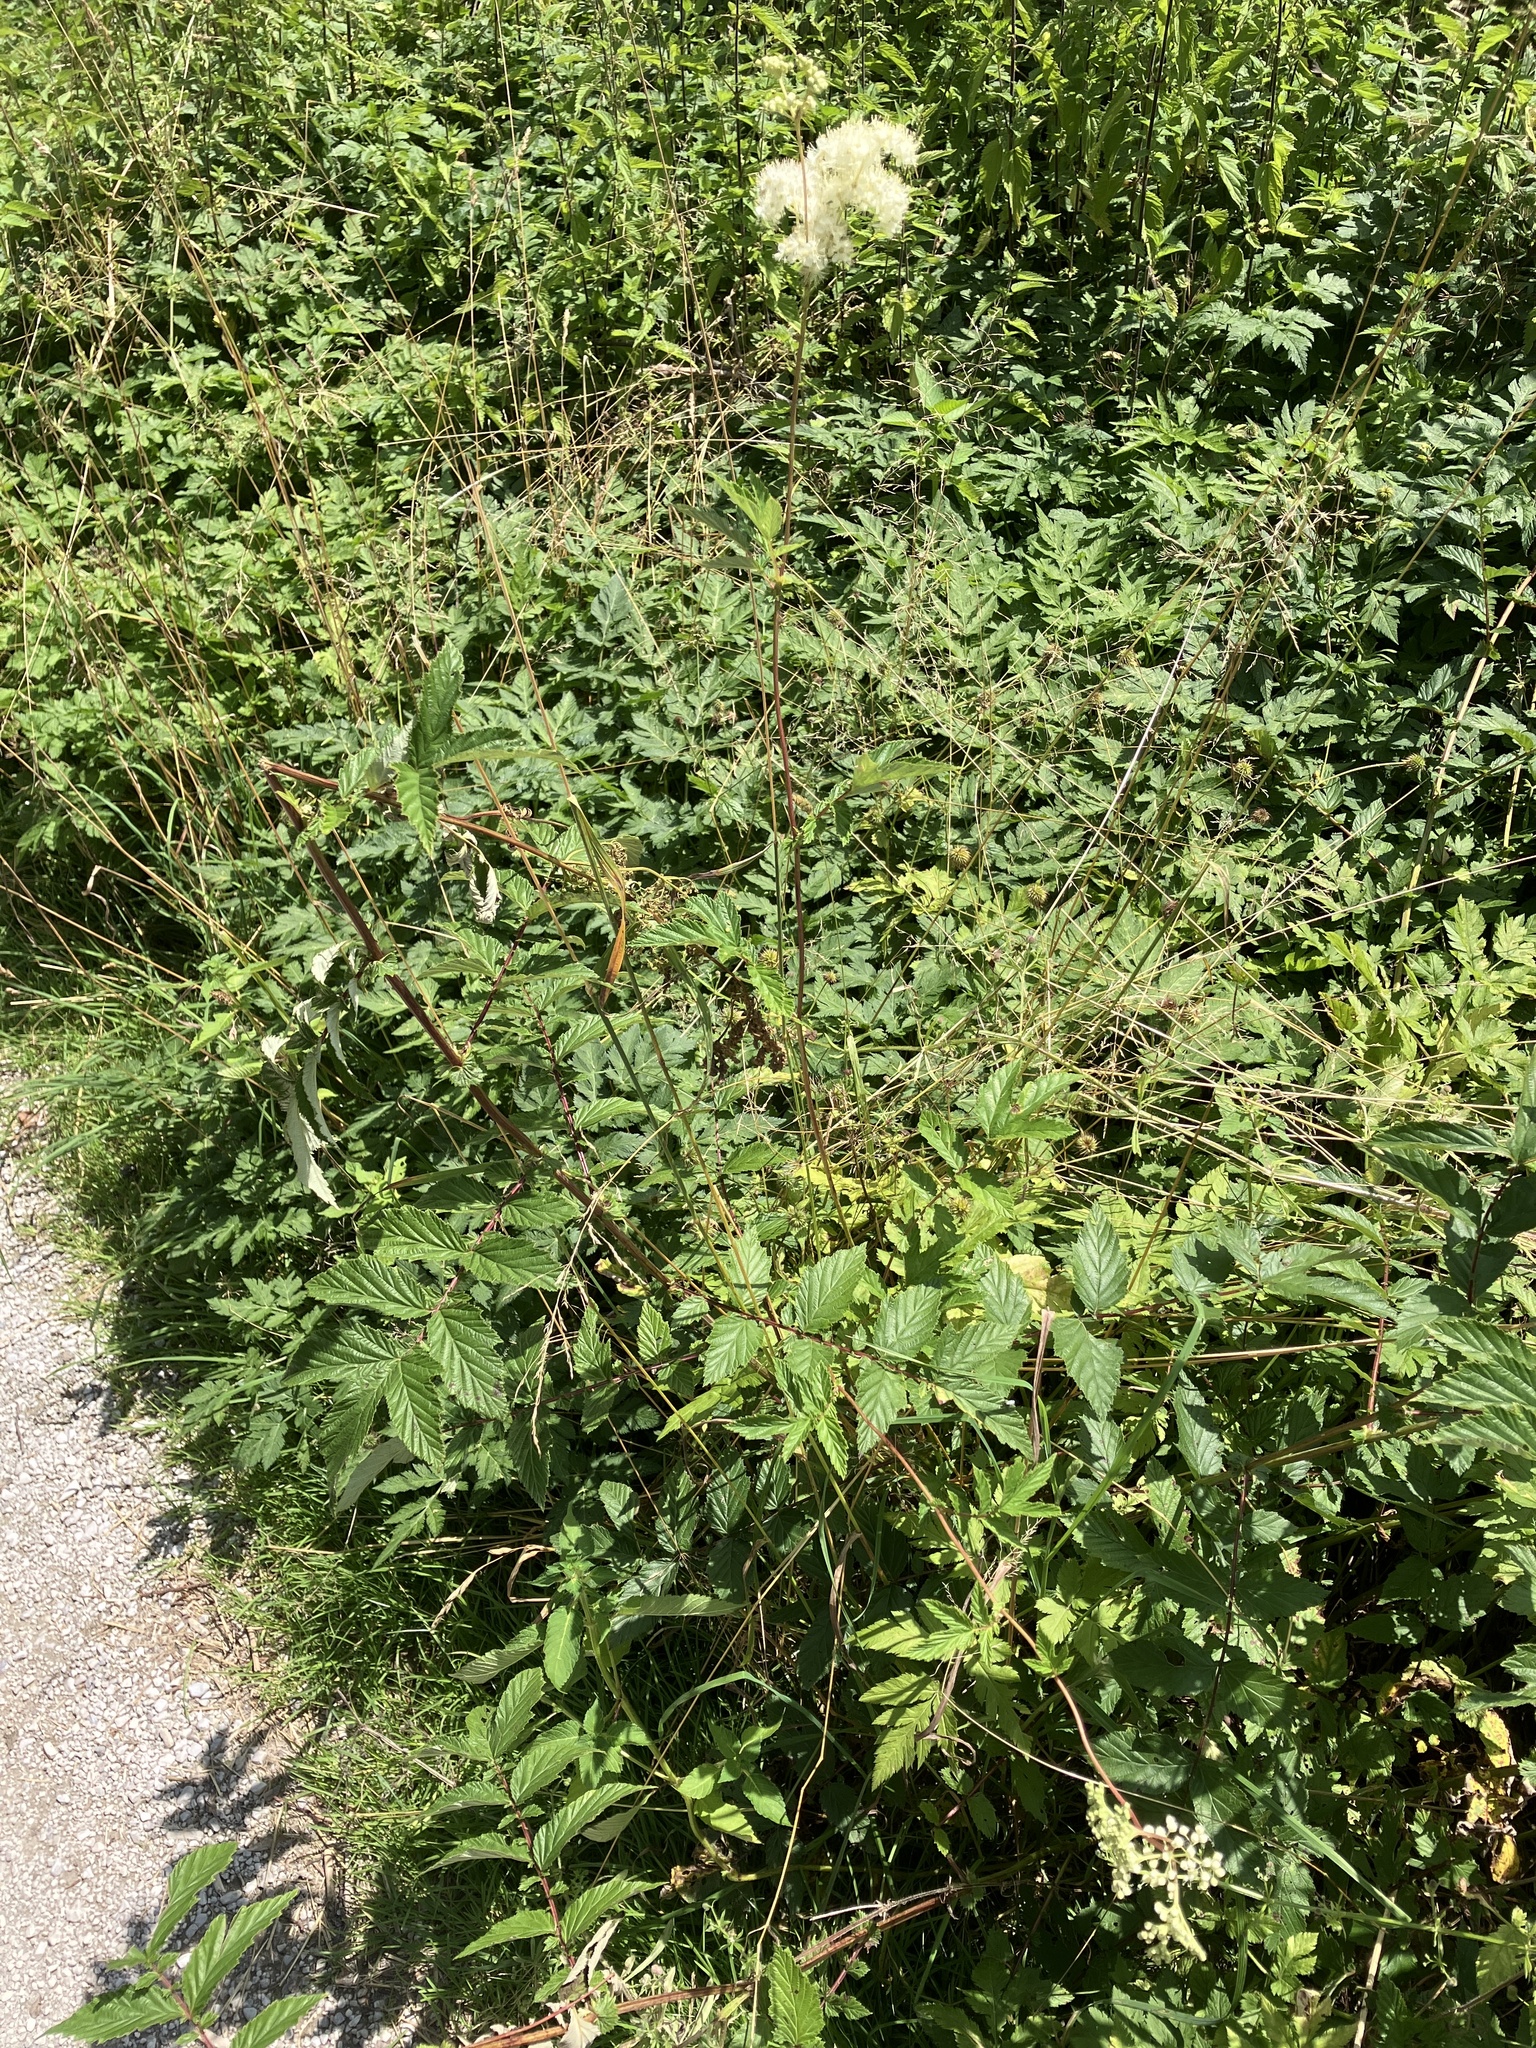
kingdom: Plantae
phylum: Tracheophyta
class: Magnoliopsida
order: Rosales
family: Rosaceae
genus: Filipendula
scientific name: Filipendula ulmaria
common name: Meadowsweet
